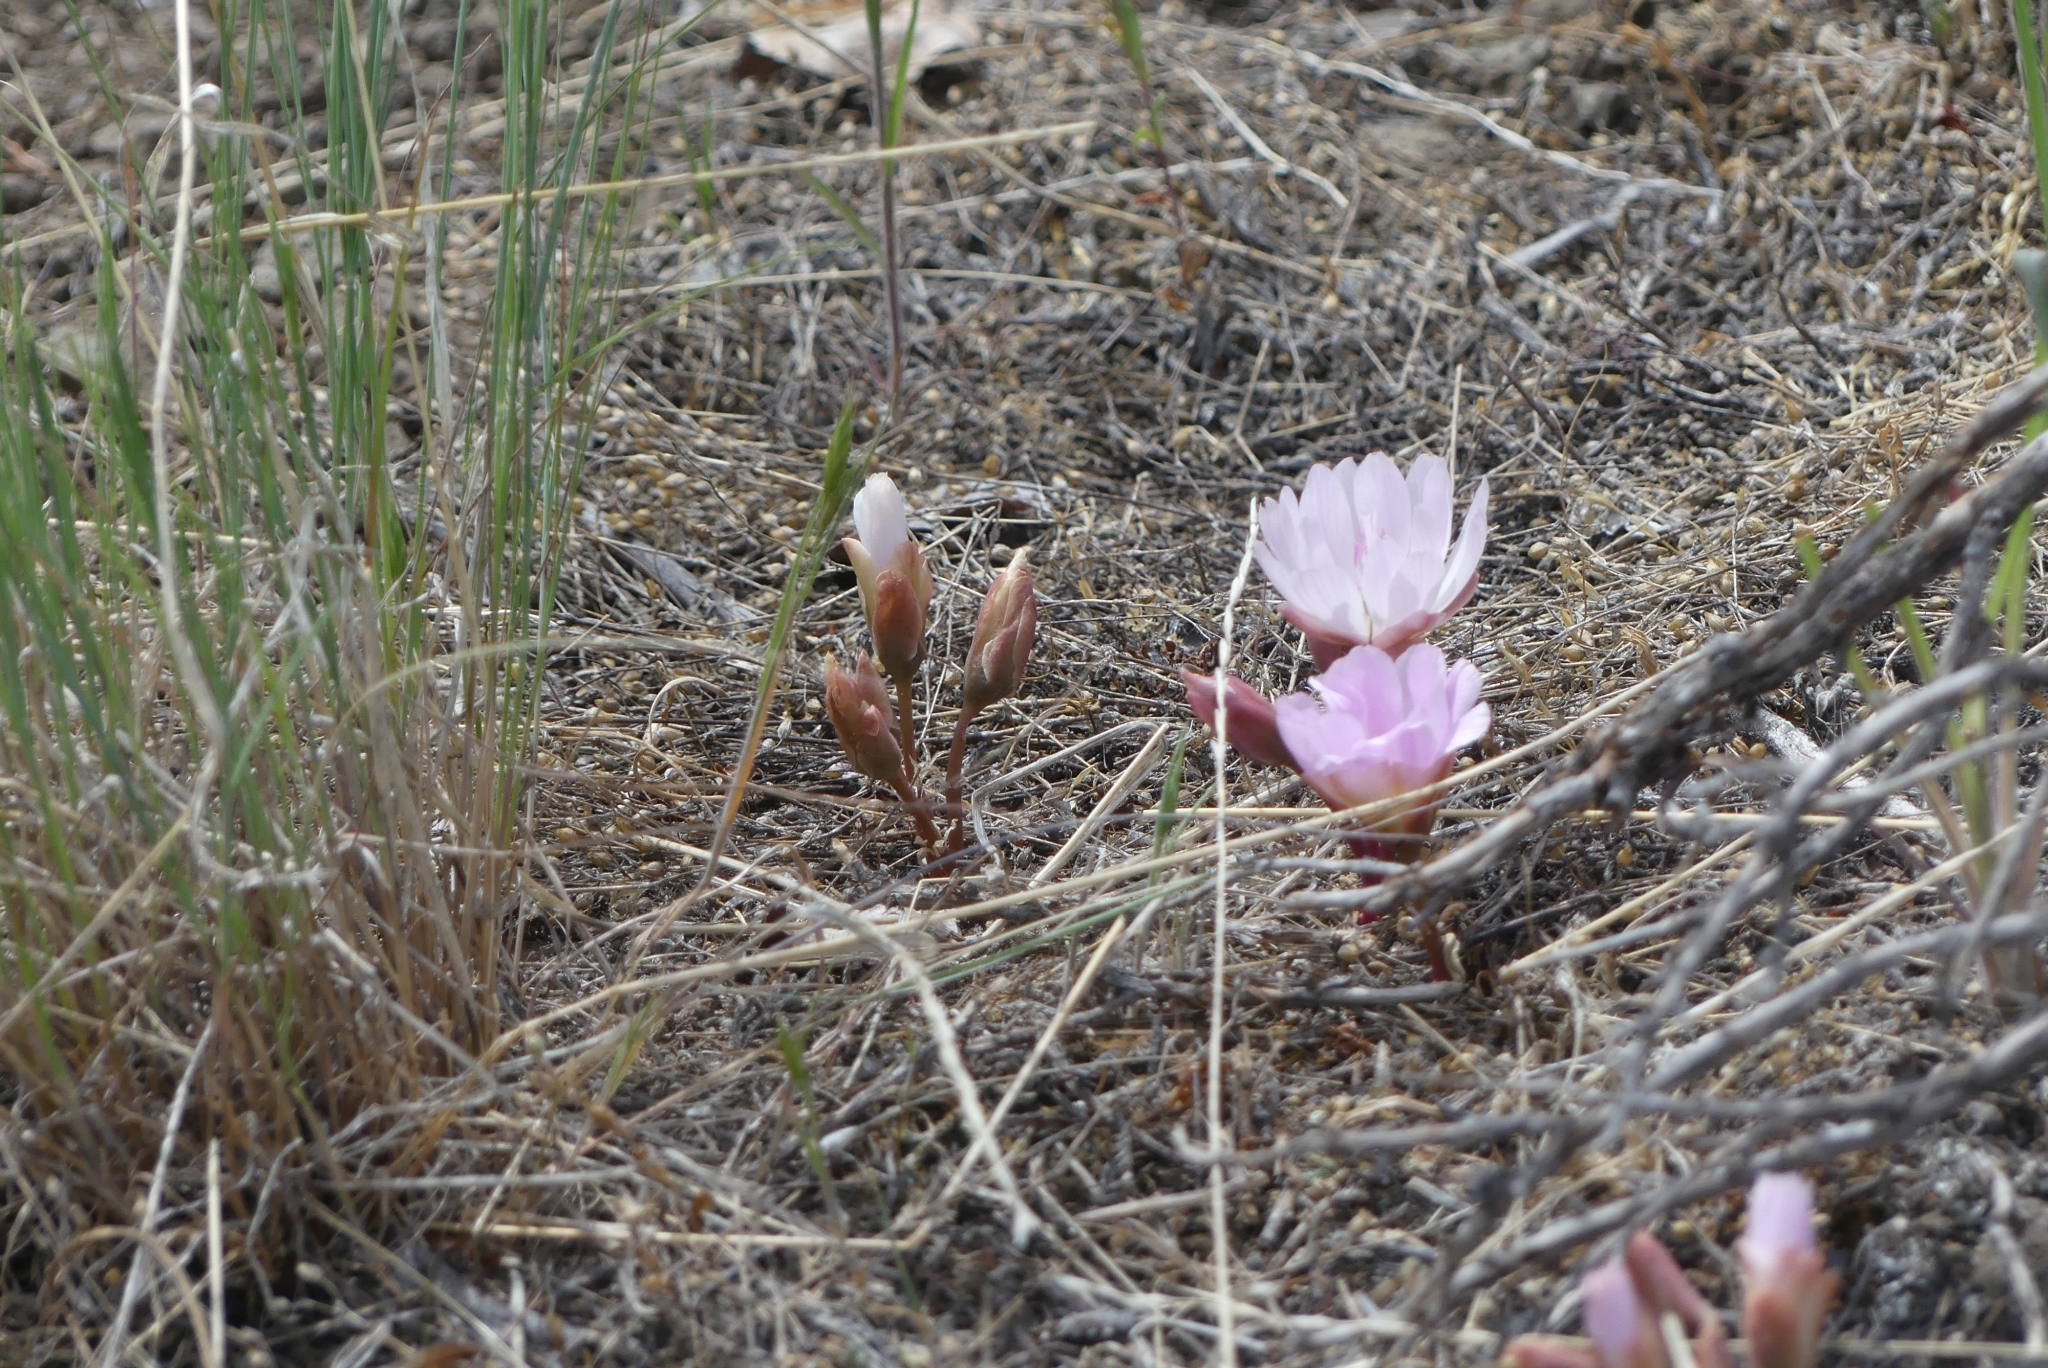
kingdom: Plantae
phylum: Tracheophyta
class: Magnoliopsida
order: Caryophyllales
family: Montiaceae
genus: Lewisia
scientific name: Lewisia rediviva
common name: Bitter-root
